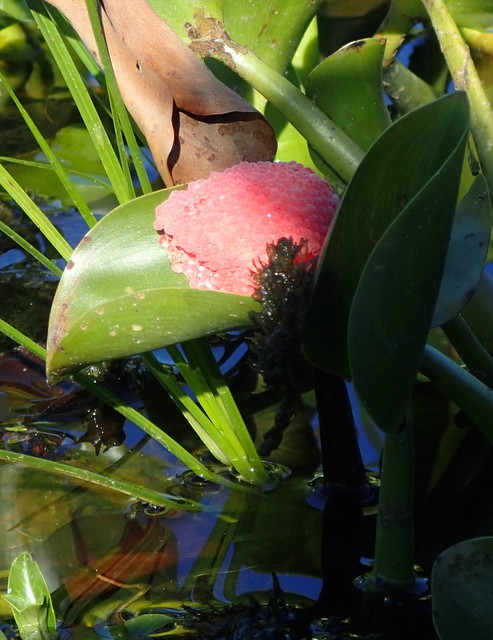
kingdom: Animalia
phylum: Mollusca
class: Gastropoda
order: Architaenioglossa
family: Ampullariidae
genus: Pomacea
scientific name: Pomacea maculata
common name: Giant applesnail
